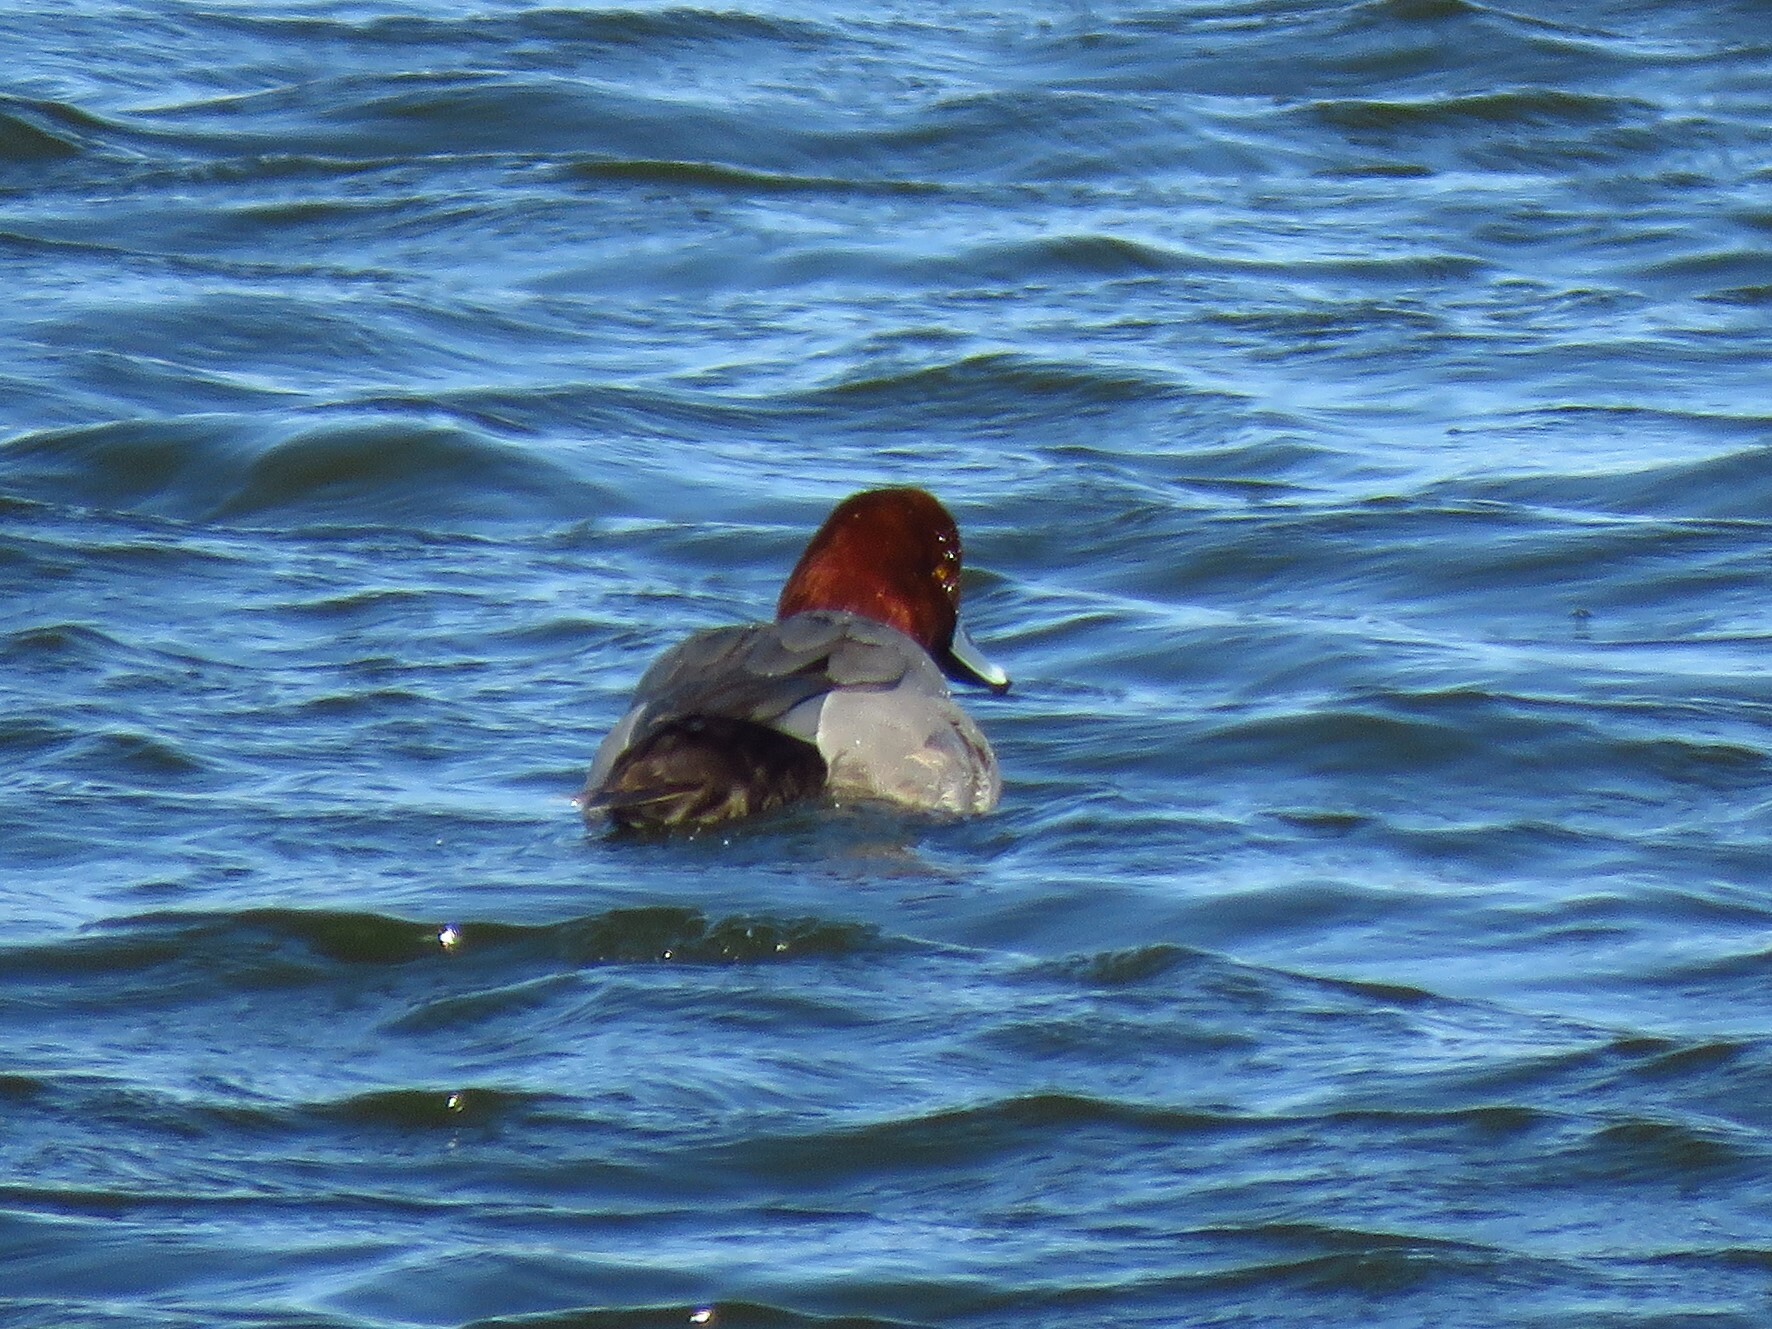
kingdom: Animalia
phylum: Chordata
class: Aves
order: Anseriformes
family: Anatidae
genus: Aythya
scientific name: Aythya americana
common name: Redhead
